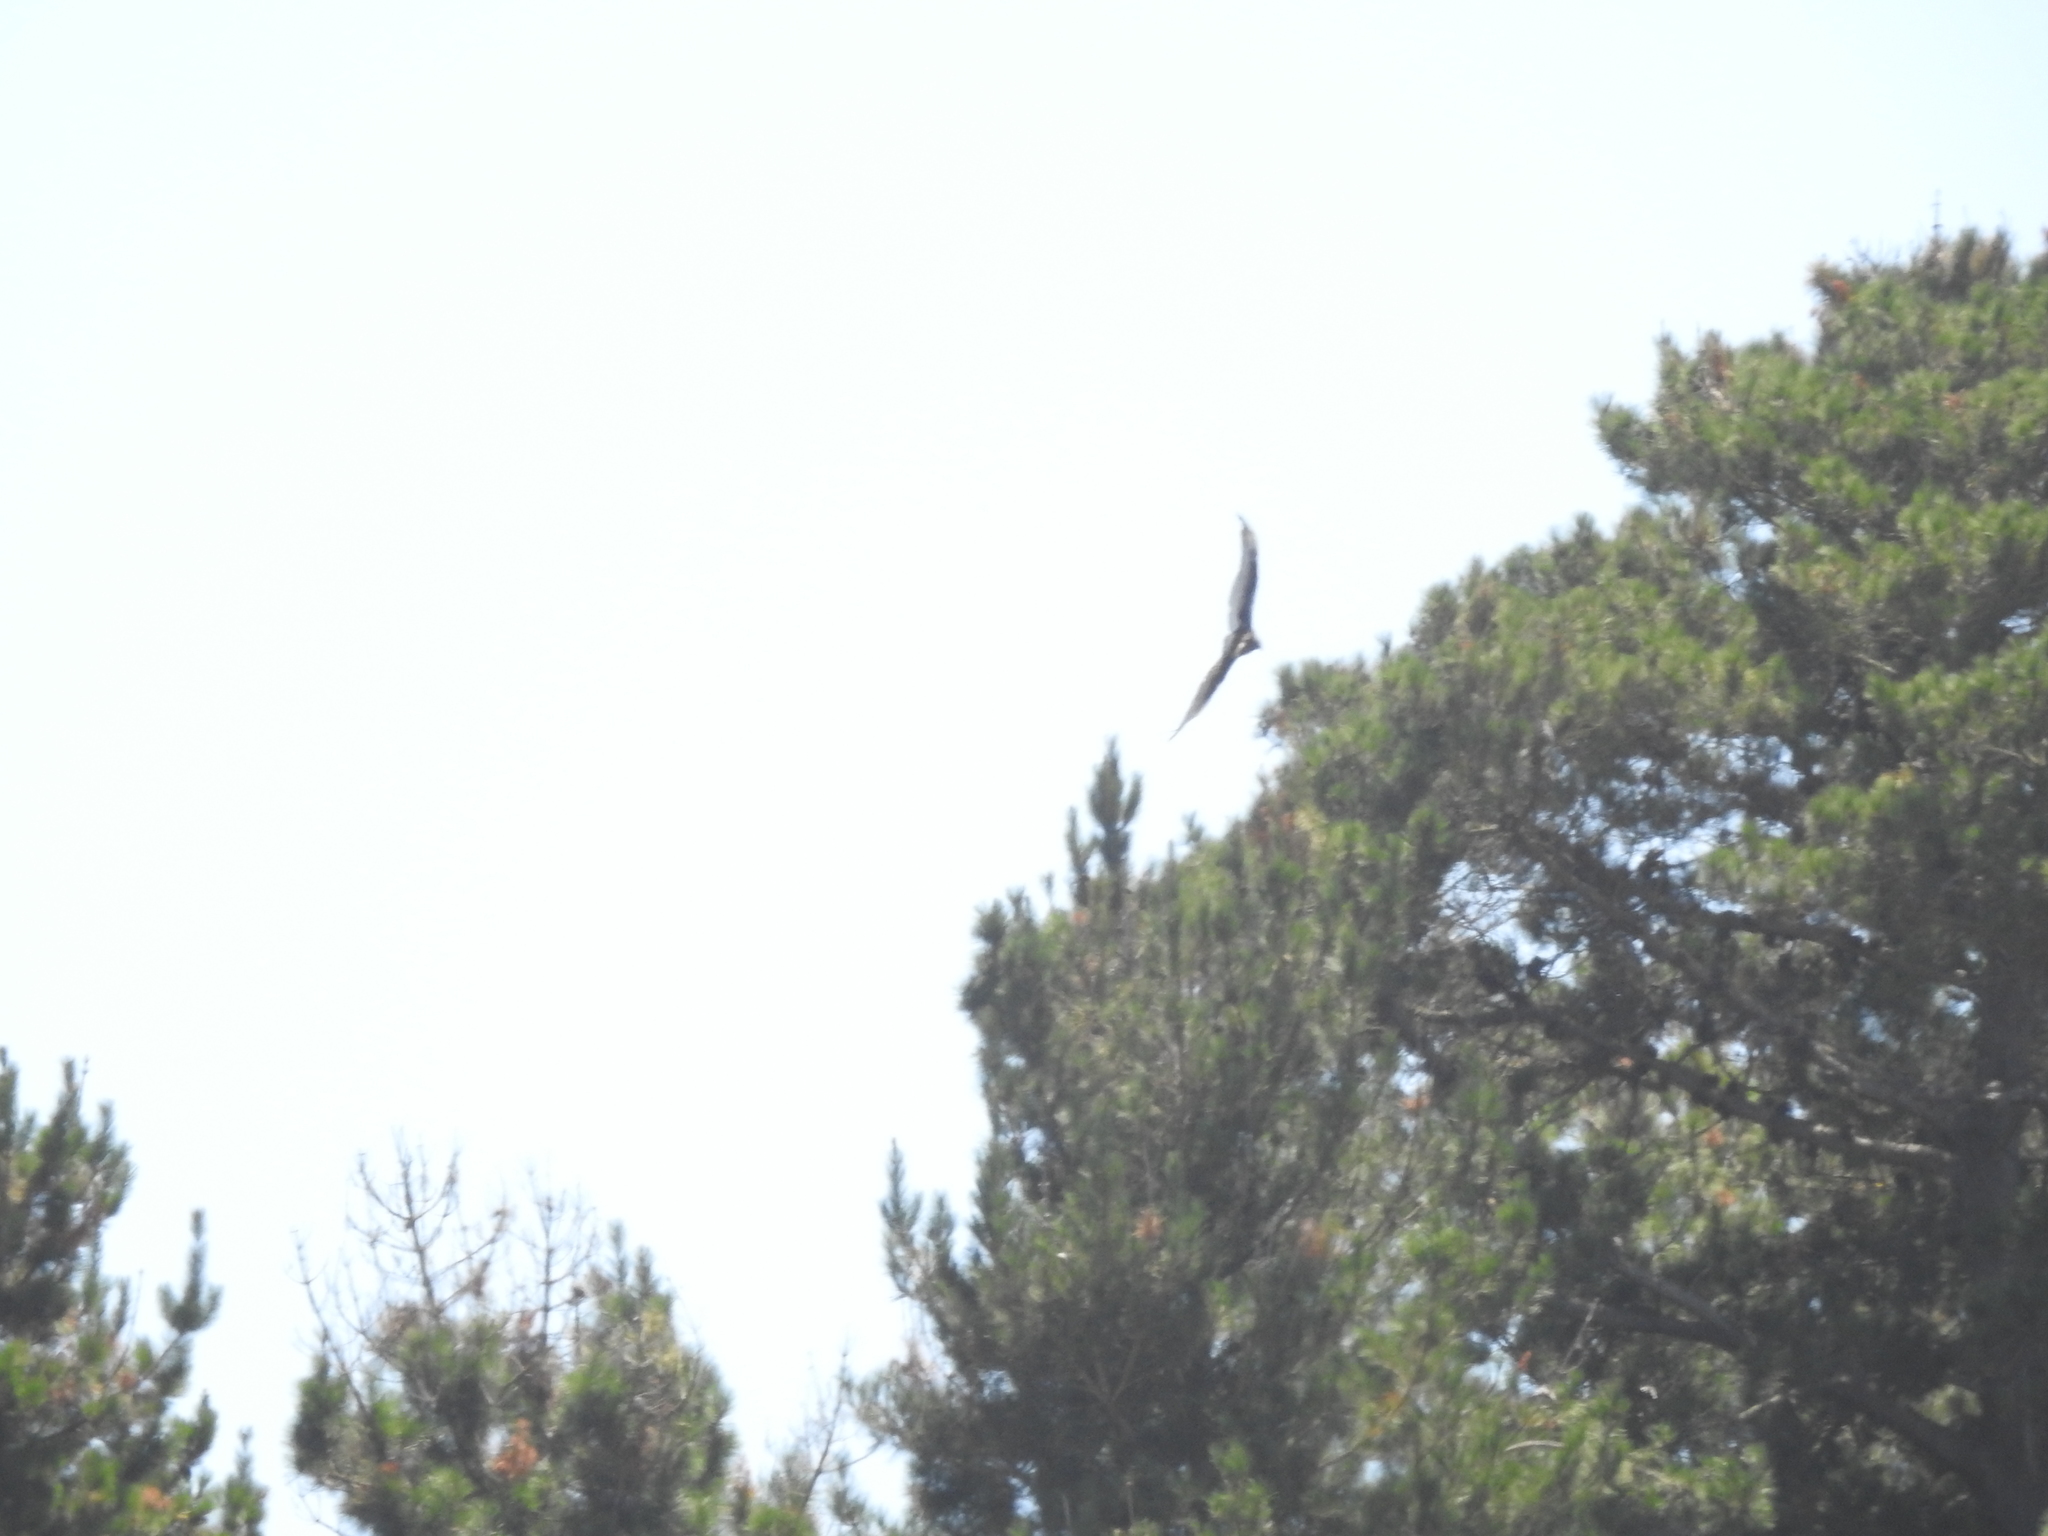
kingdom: Animalia
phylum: Chordata
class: Aves
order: Accipitriformes
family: Cathartidae
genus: Cathartes
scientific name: Cathartes aura
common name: Turkey vulture
